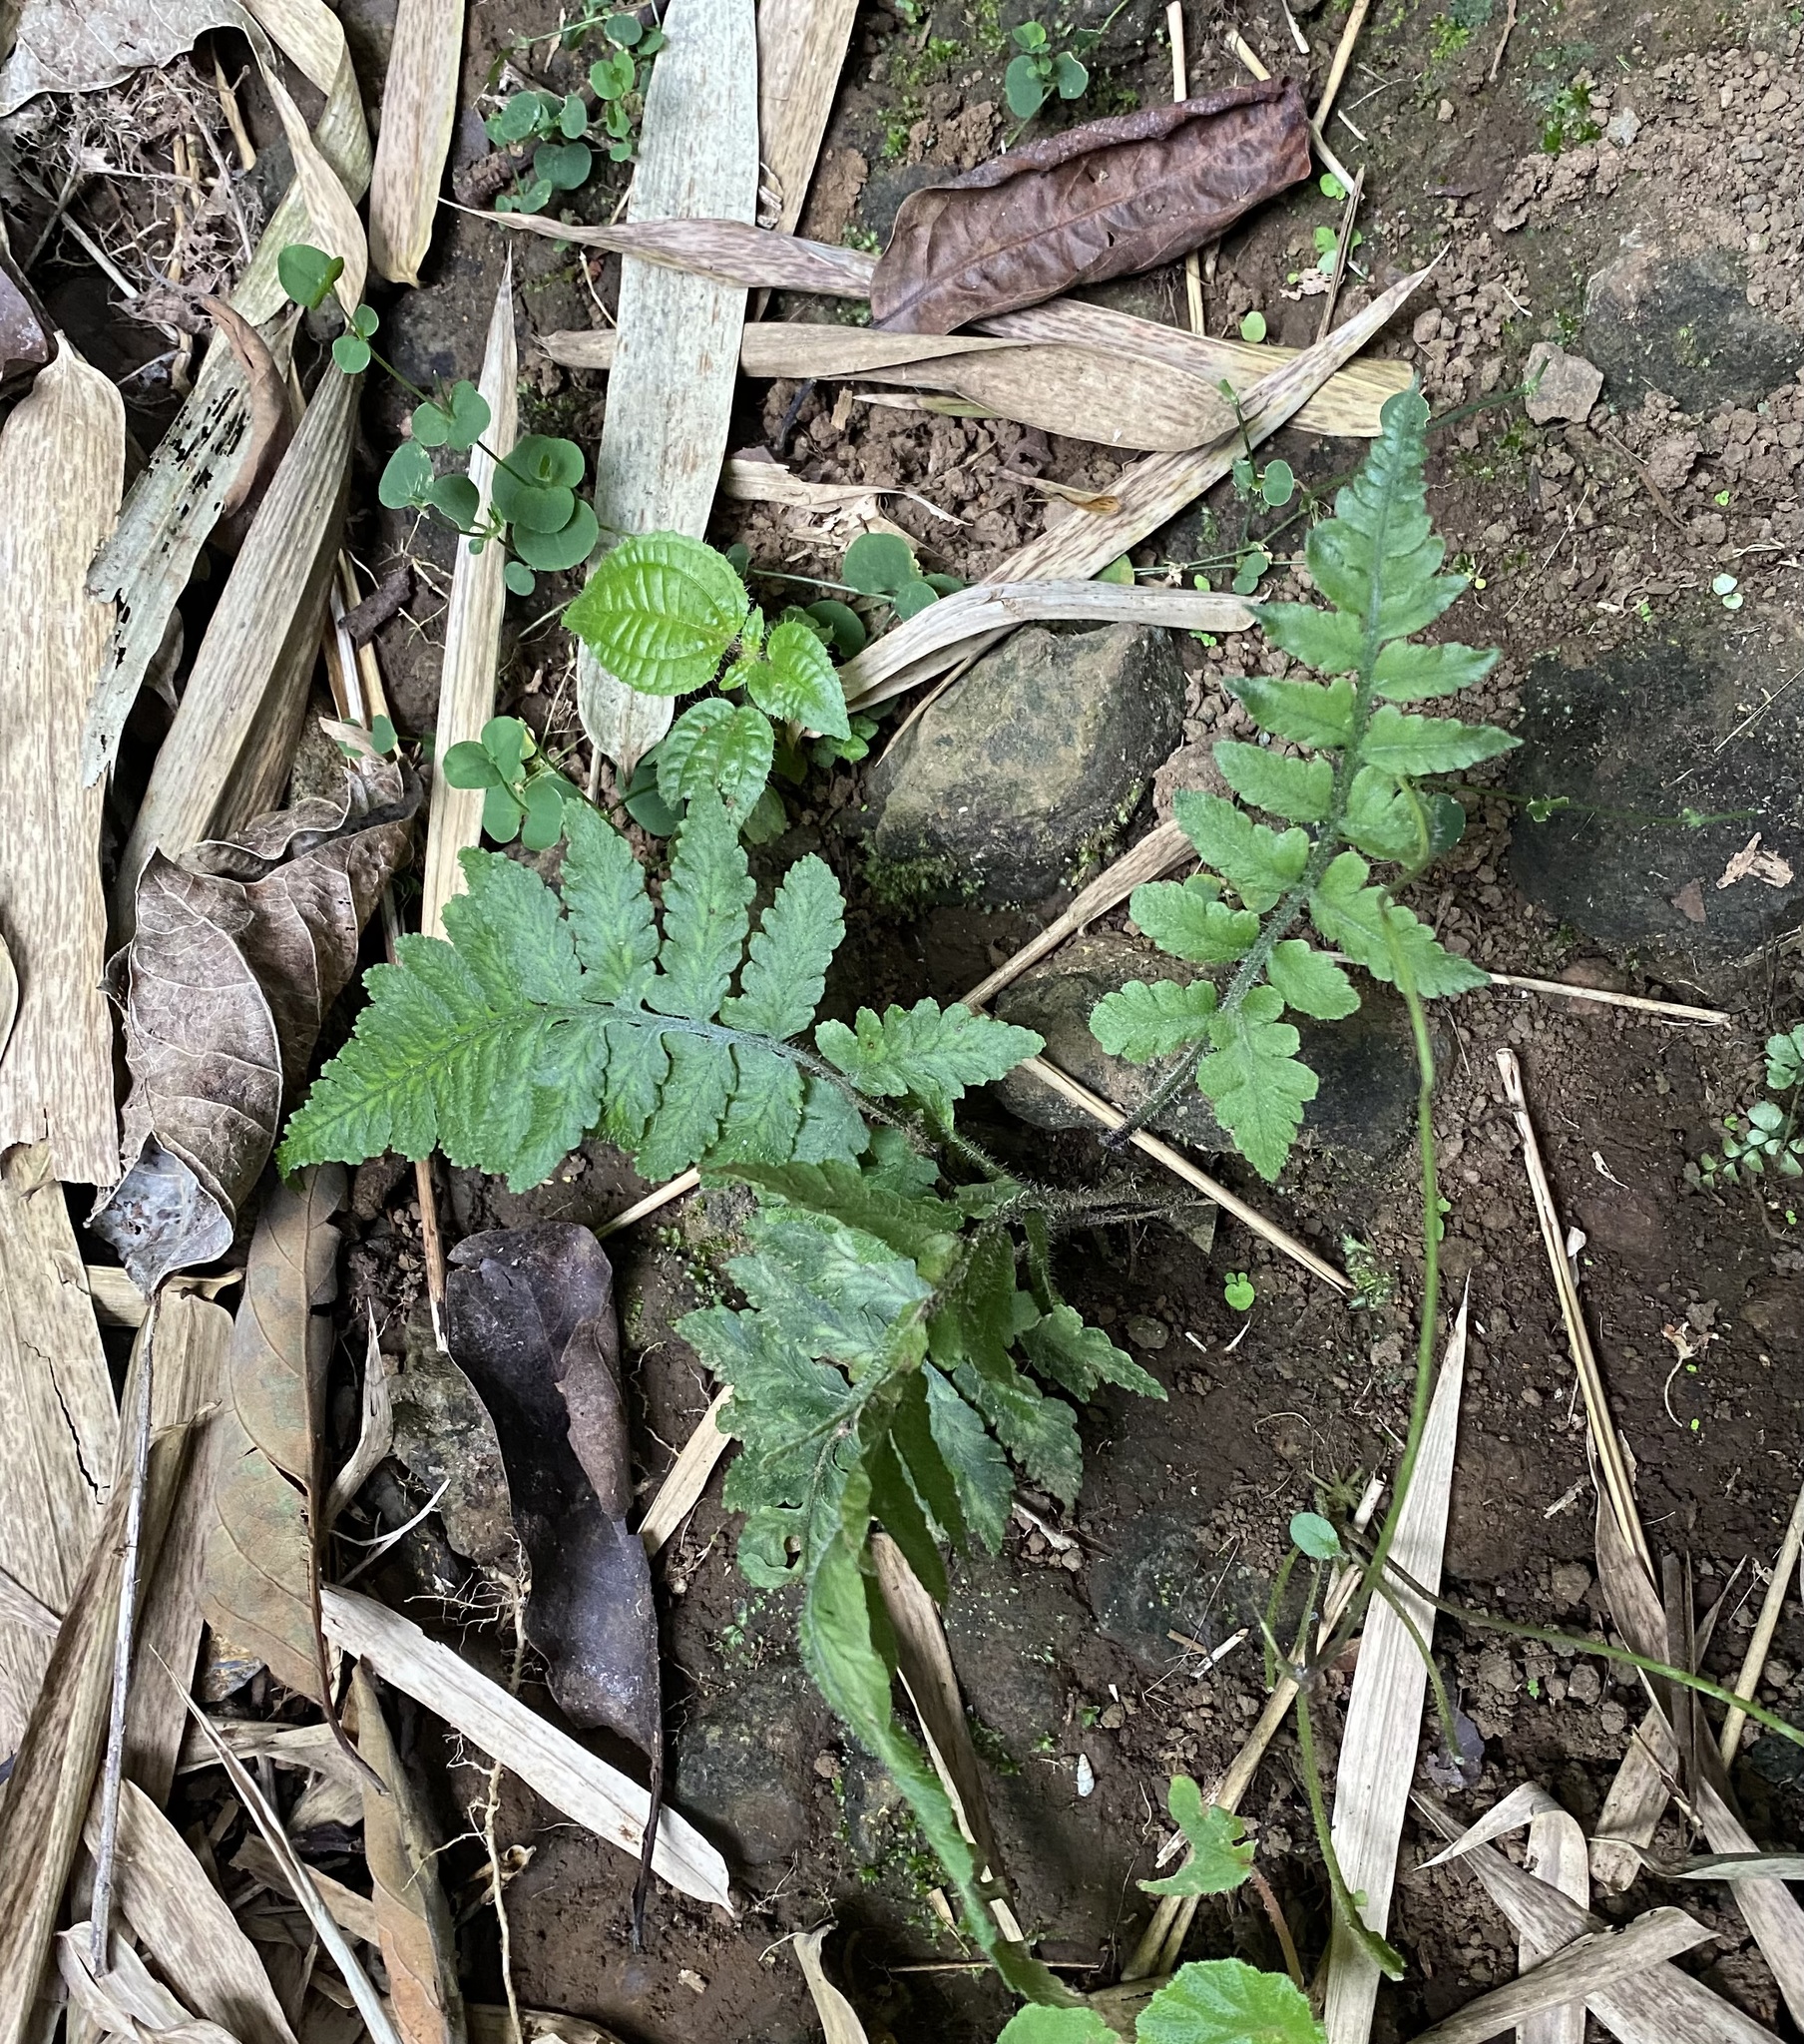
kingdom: Plantae
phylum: Tracheophyta
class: Polypodiopsida
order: Polypodiales
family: Athyriaceae
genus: Deparia
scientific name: Deparia petersenii
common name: Japanese false spleenwort
